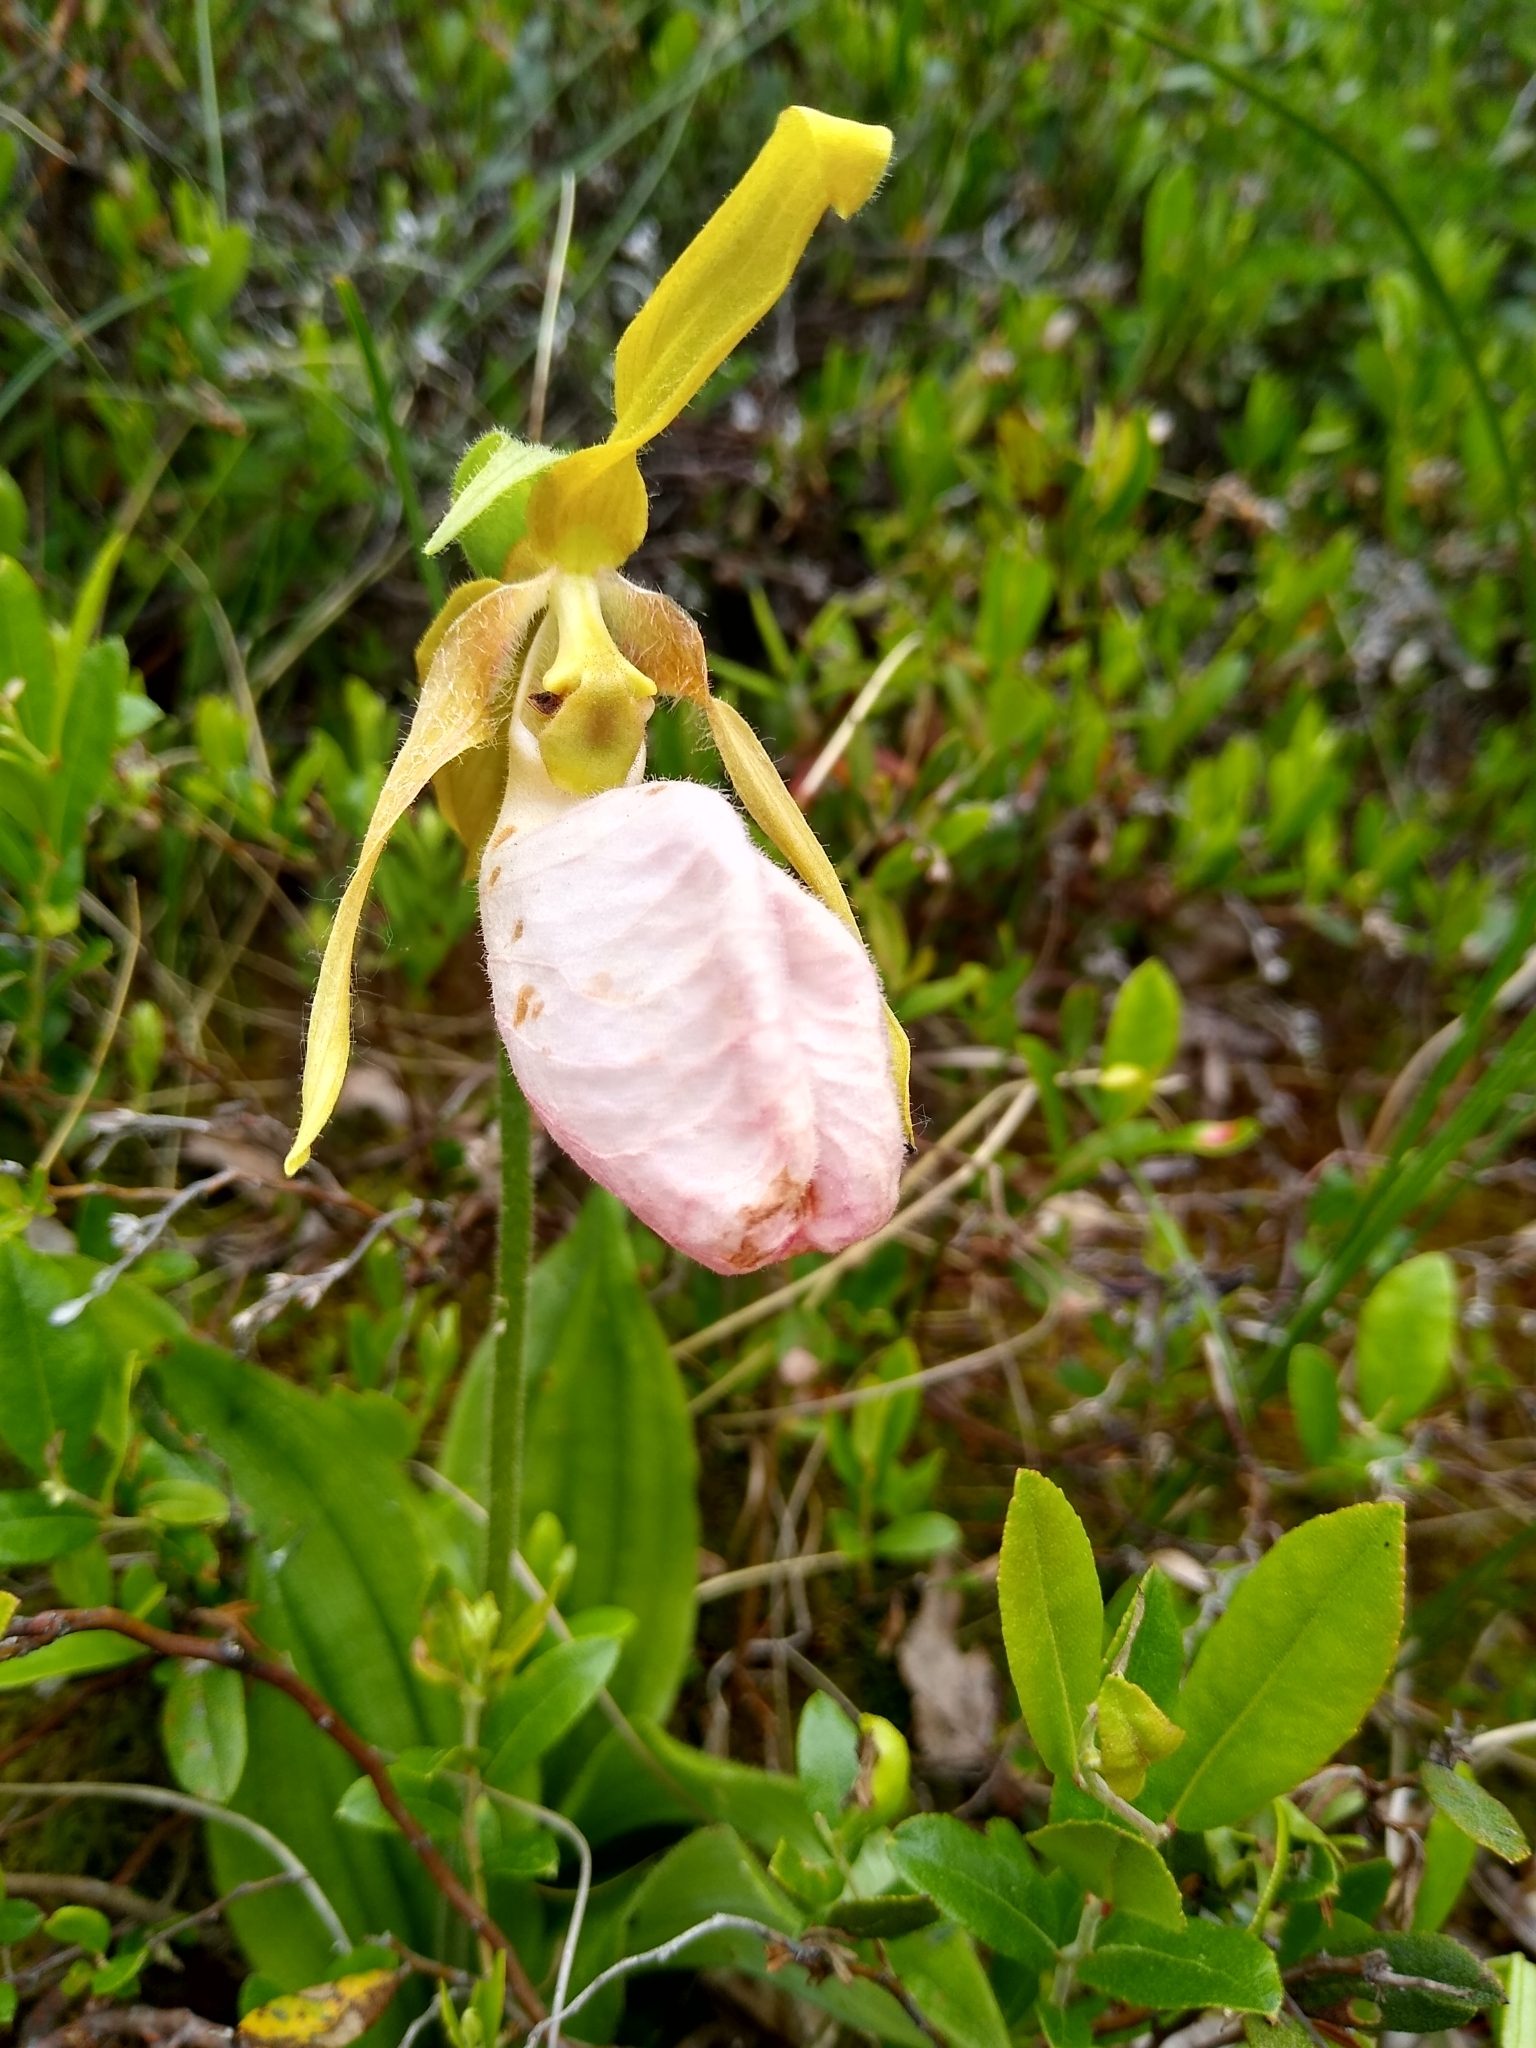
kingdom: Plantae
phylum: Tracheophyta
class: Liliopsida
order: Asparagales
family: Orchidaceae
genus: Cypripedium
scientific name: Cypripedium acaule
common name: Pink lady's-slipper
